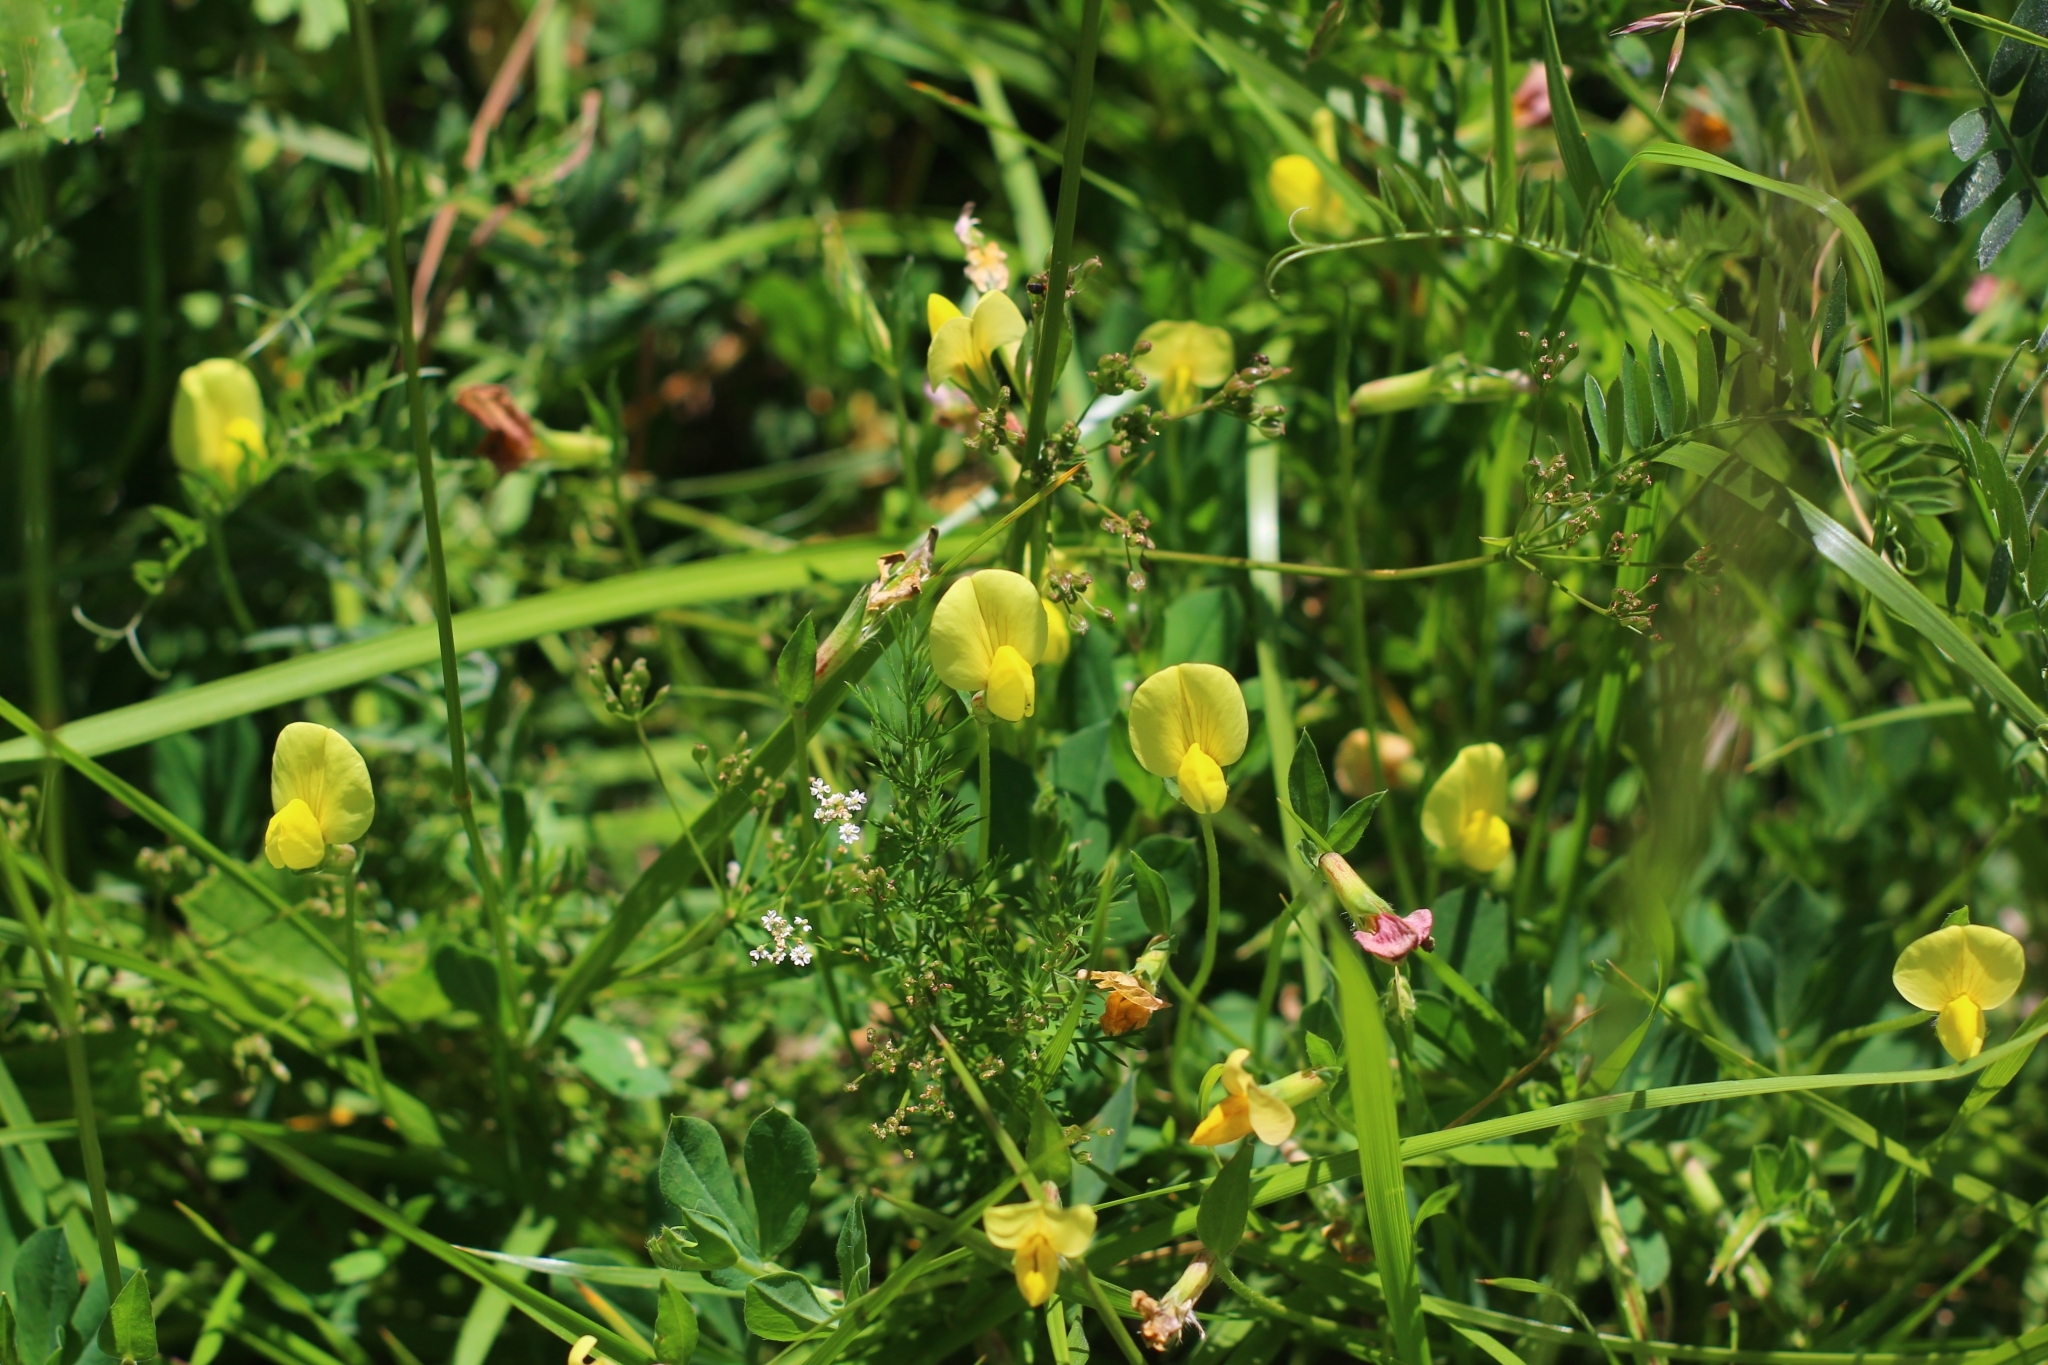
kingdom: Plantae
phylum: Tracheophyta
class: Magnoliopsida
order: Fabales
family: Fabaceae
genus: Lotus
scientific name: Lotus maritimus
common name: Dragon's-teeth
